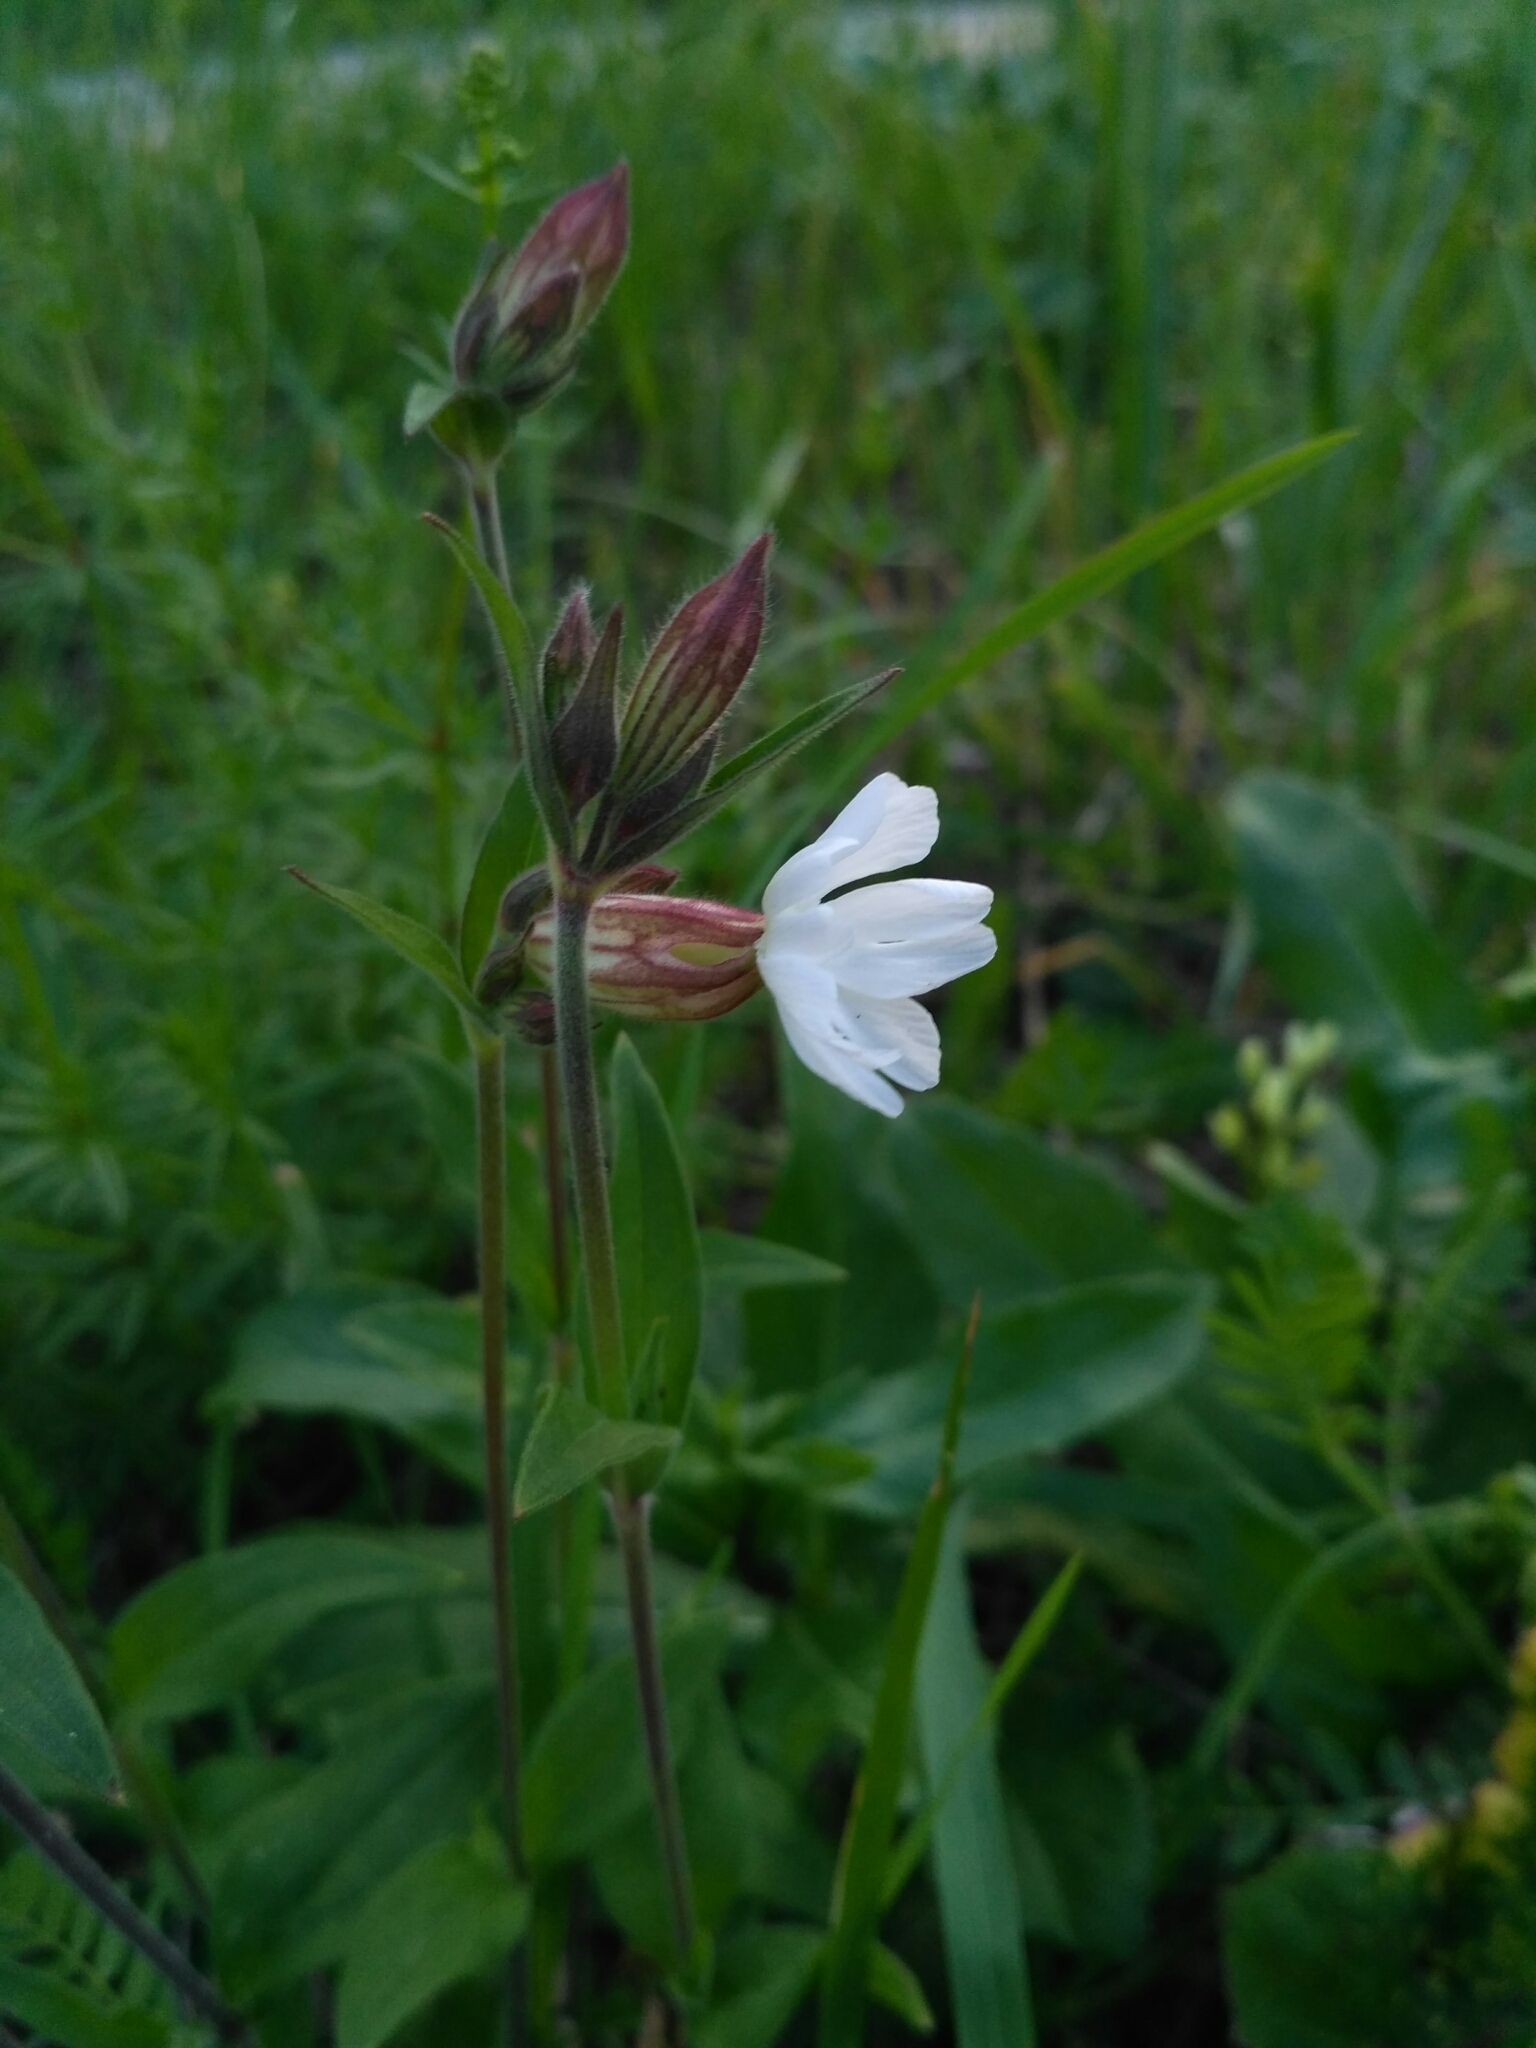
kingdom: Plantae
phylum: Tracheophyta
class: Magnoliopsida
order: Caryophyllales
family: Caryophyllaceae
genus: Silene
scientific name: Silene latifolia
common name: White campion
